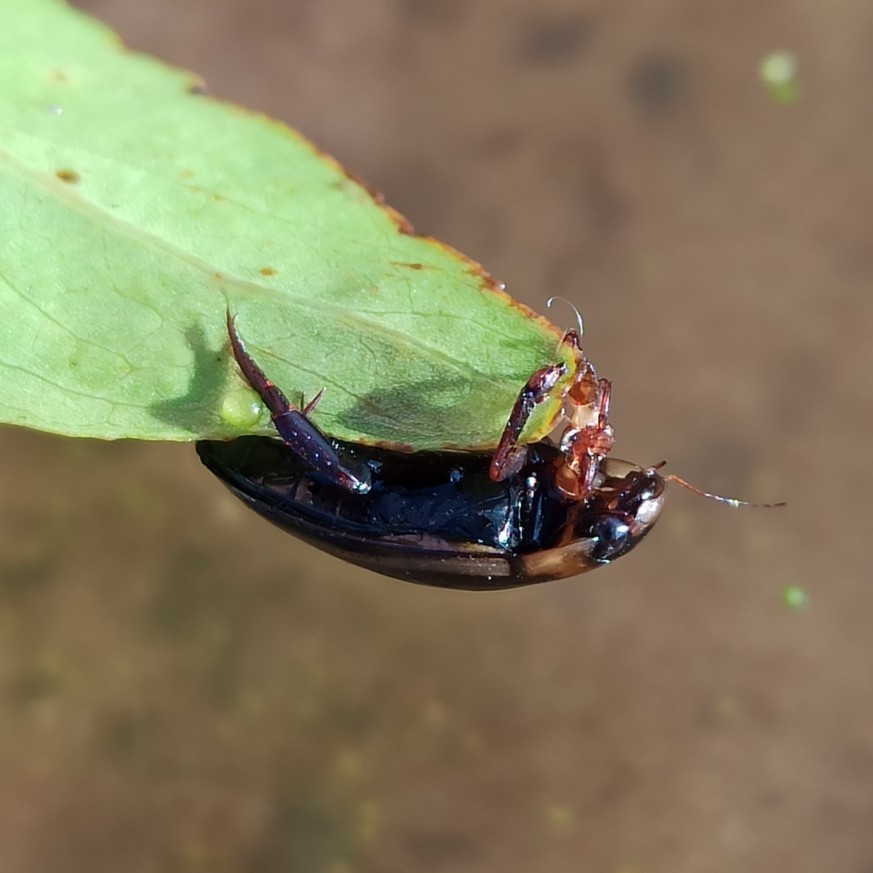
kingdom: Animalia
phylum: Arthropoda
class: Insecta
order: Coleoptera
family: Dytiscidae
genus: Hydaticus
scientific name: Hydaticus seminiger
